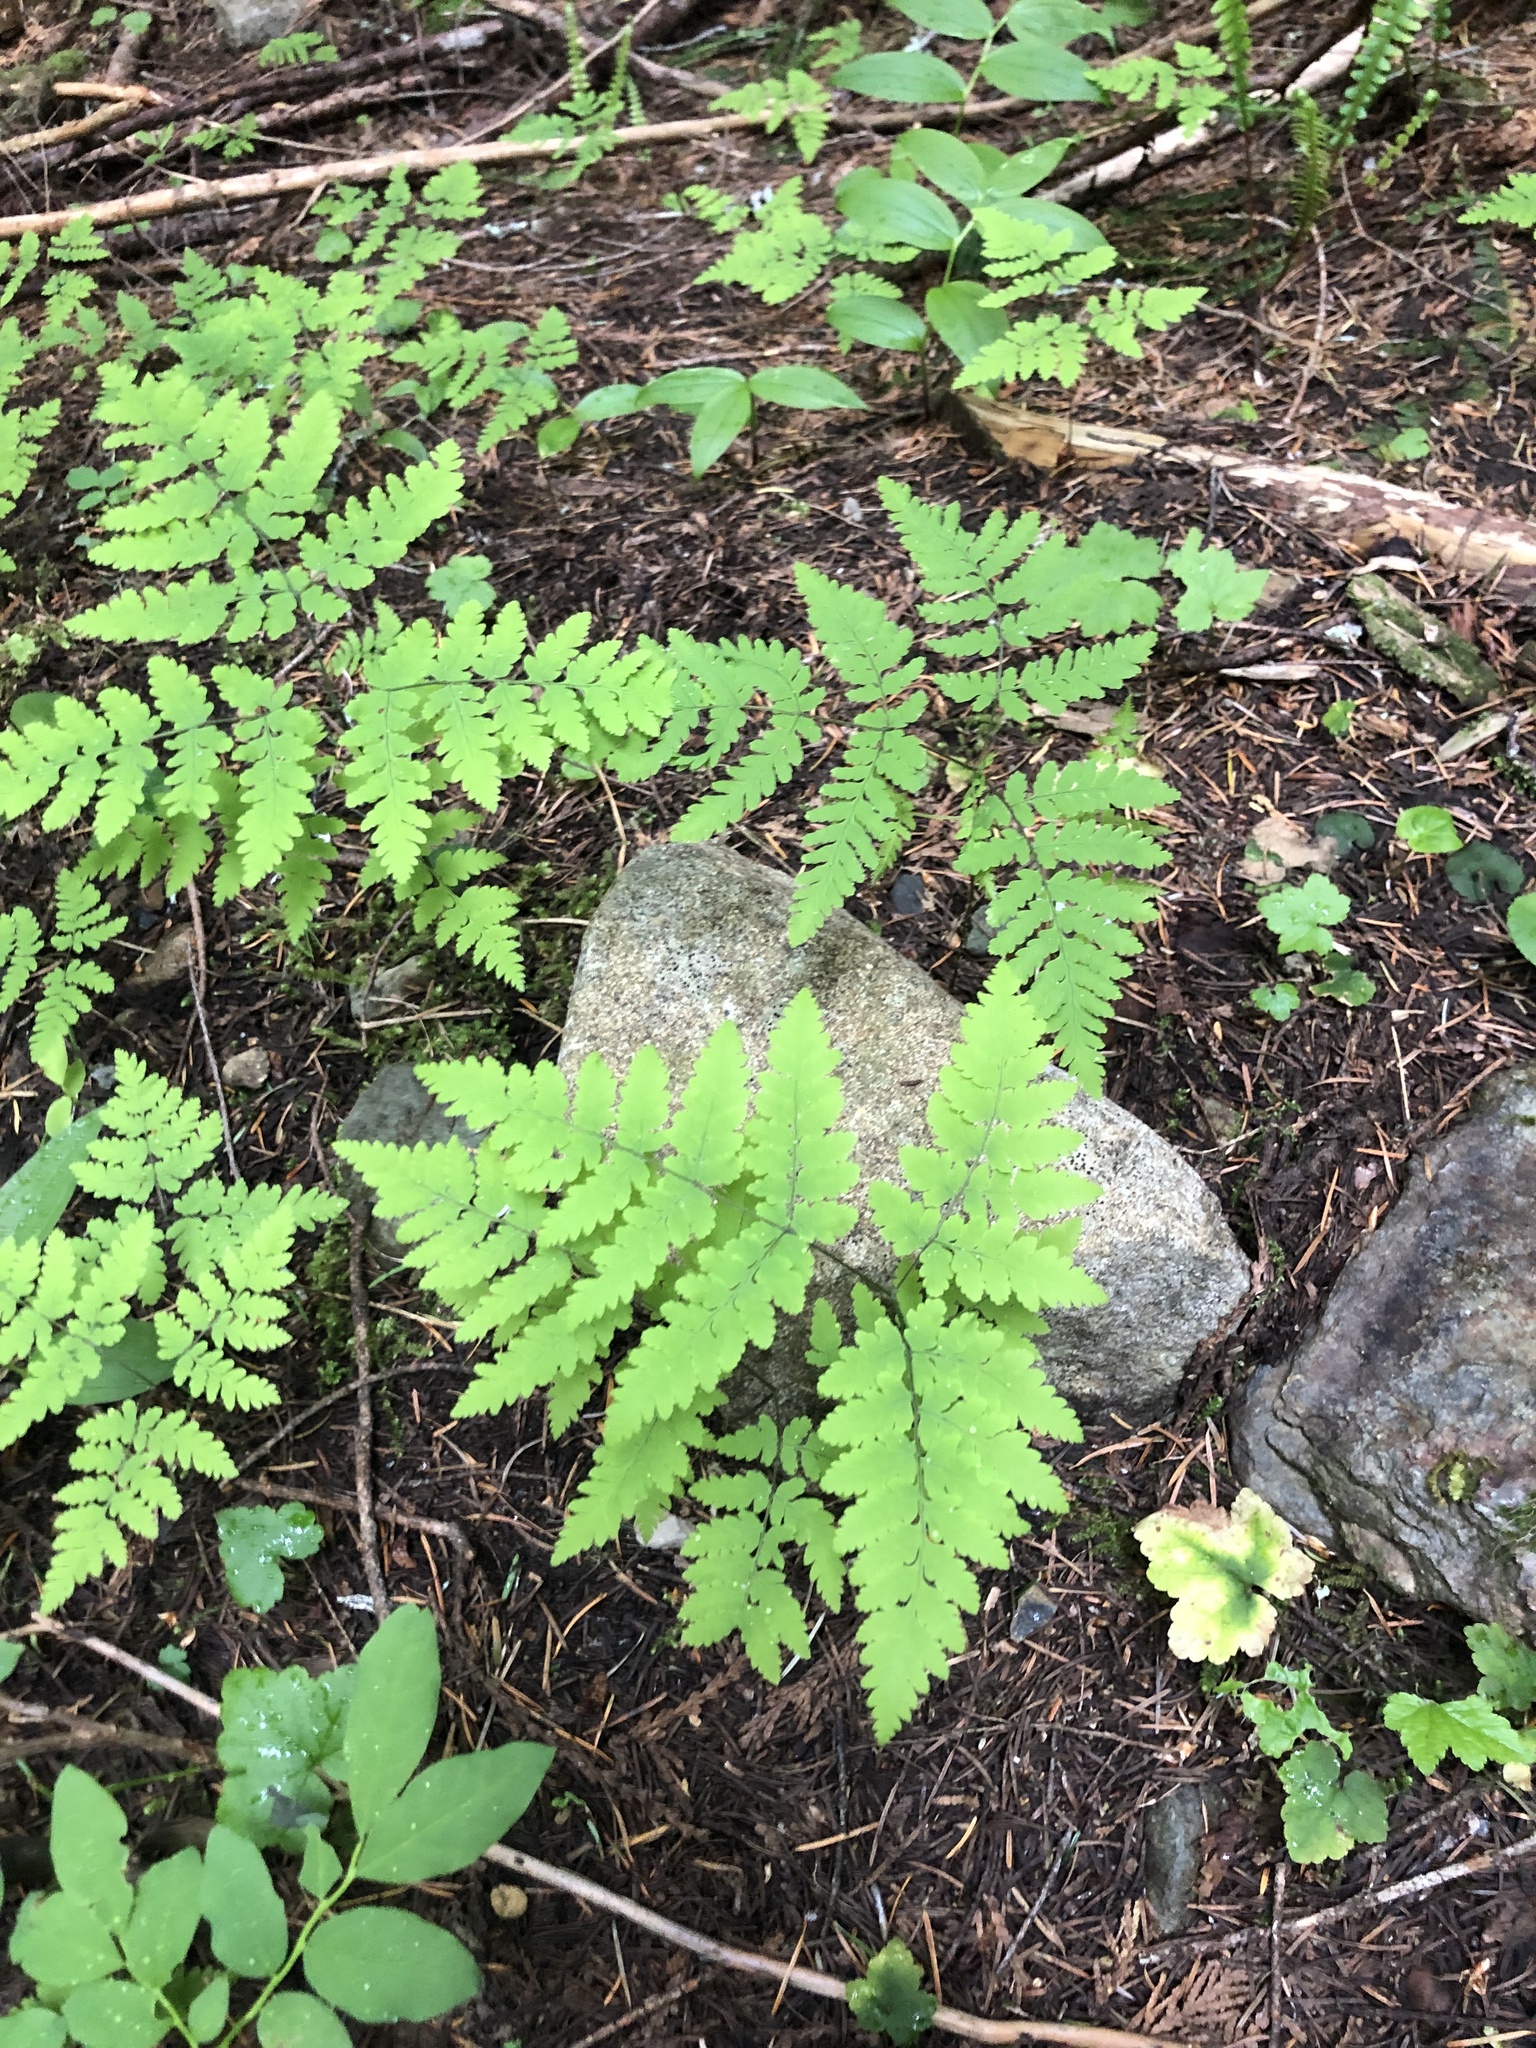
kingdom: Plantae
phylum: Tracheophyta
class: Polypodiopsida
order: Polypodiales
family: Cystopteridaceae
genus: Gymnocarpium
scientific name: Gymnocarpium disjunctum
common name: Western oak fern
